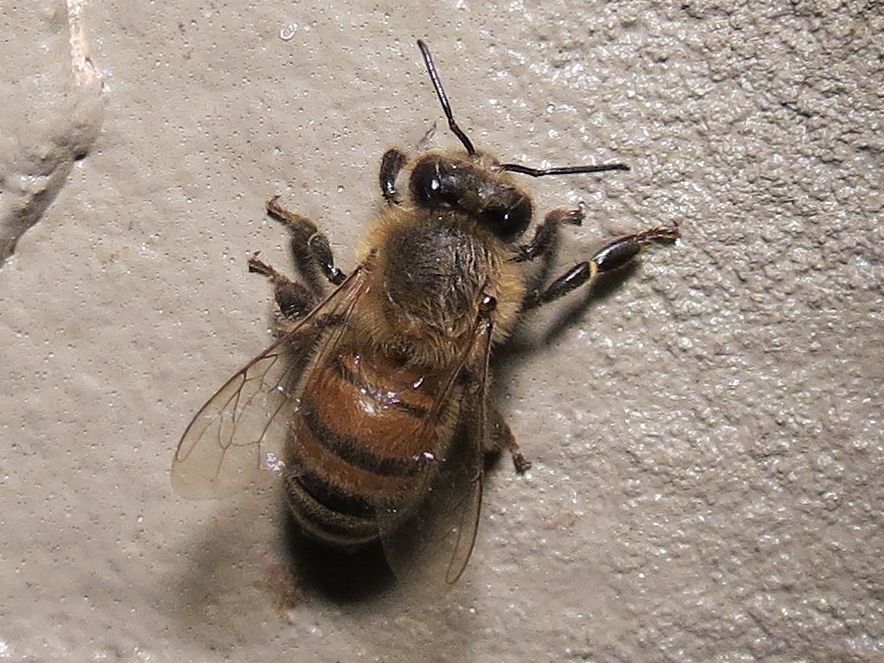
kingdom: Animalia
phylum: Arthropoda
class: Insecta
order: Hymenoptera
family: Apidae
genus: Apis
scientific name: Apis mellifera
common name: Honey bee
